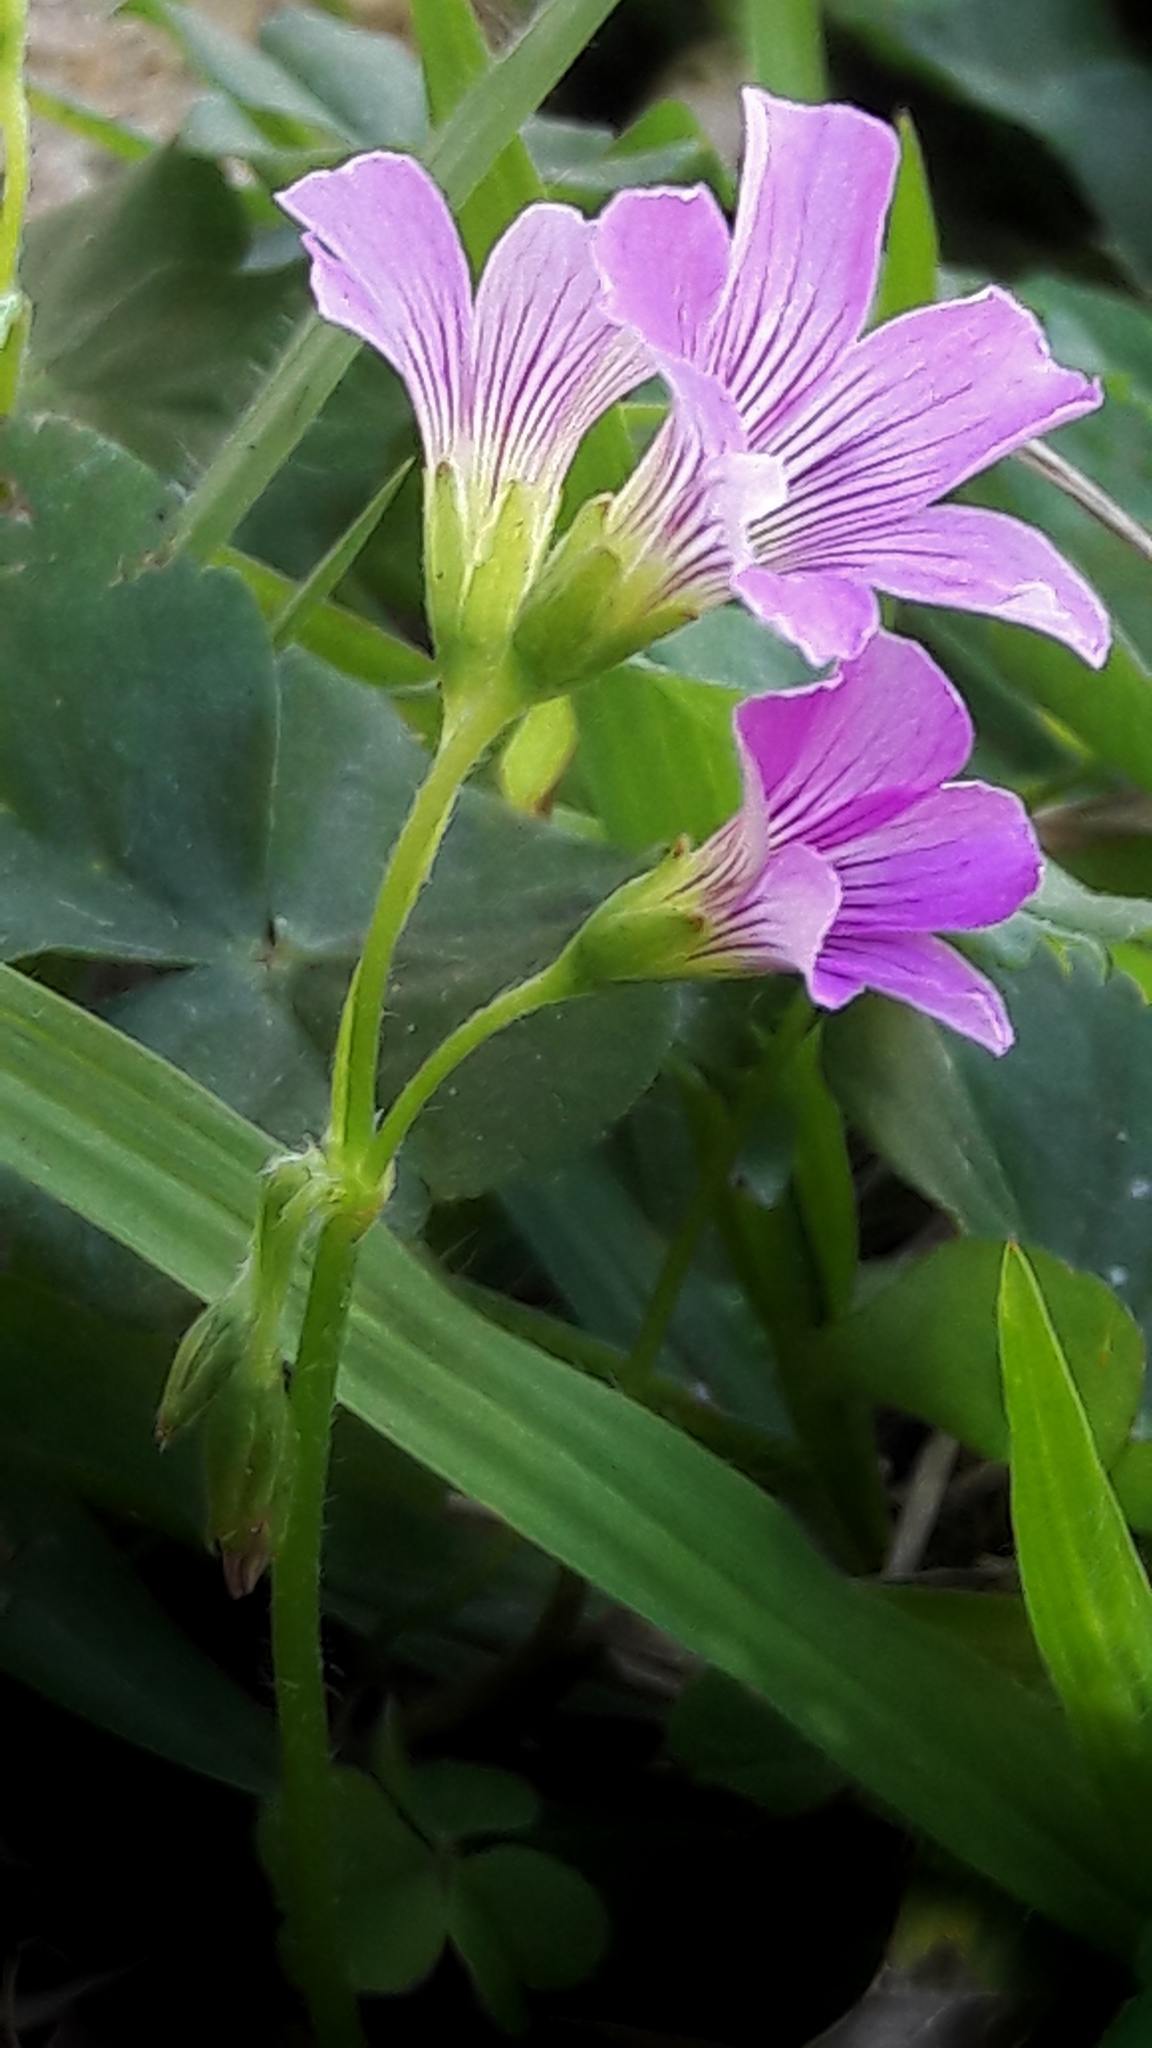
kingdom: Plantae
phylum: Tracheophyta
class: Magnoliopsida
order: Oxalidales
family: Oxalidaceae
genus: Oxalis
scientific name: Oxalis debilis
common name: Large-flowered pink-sorrel
